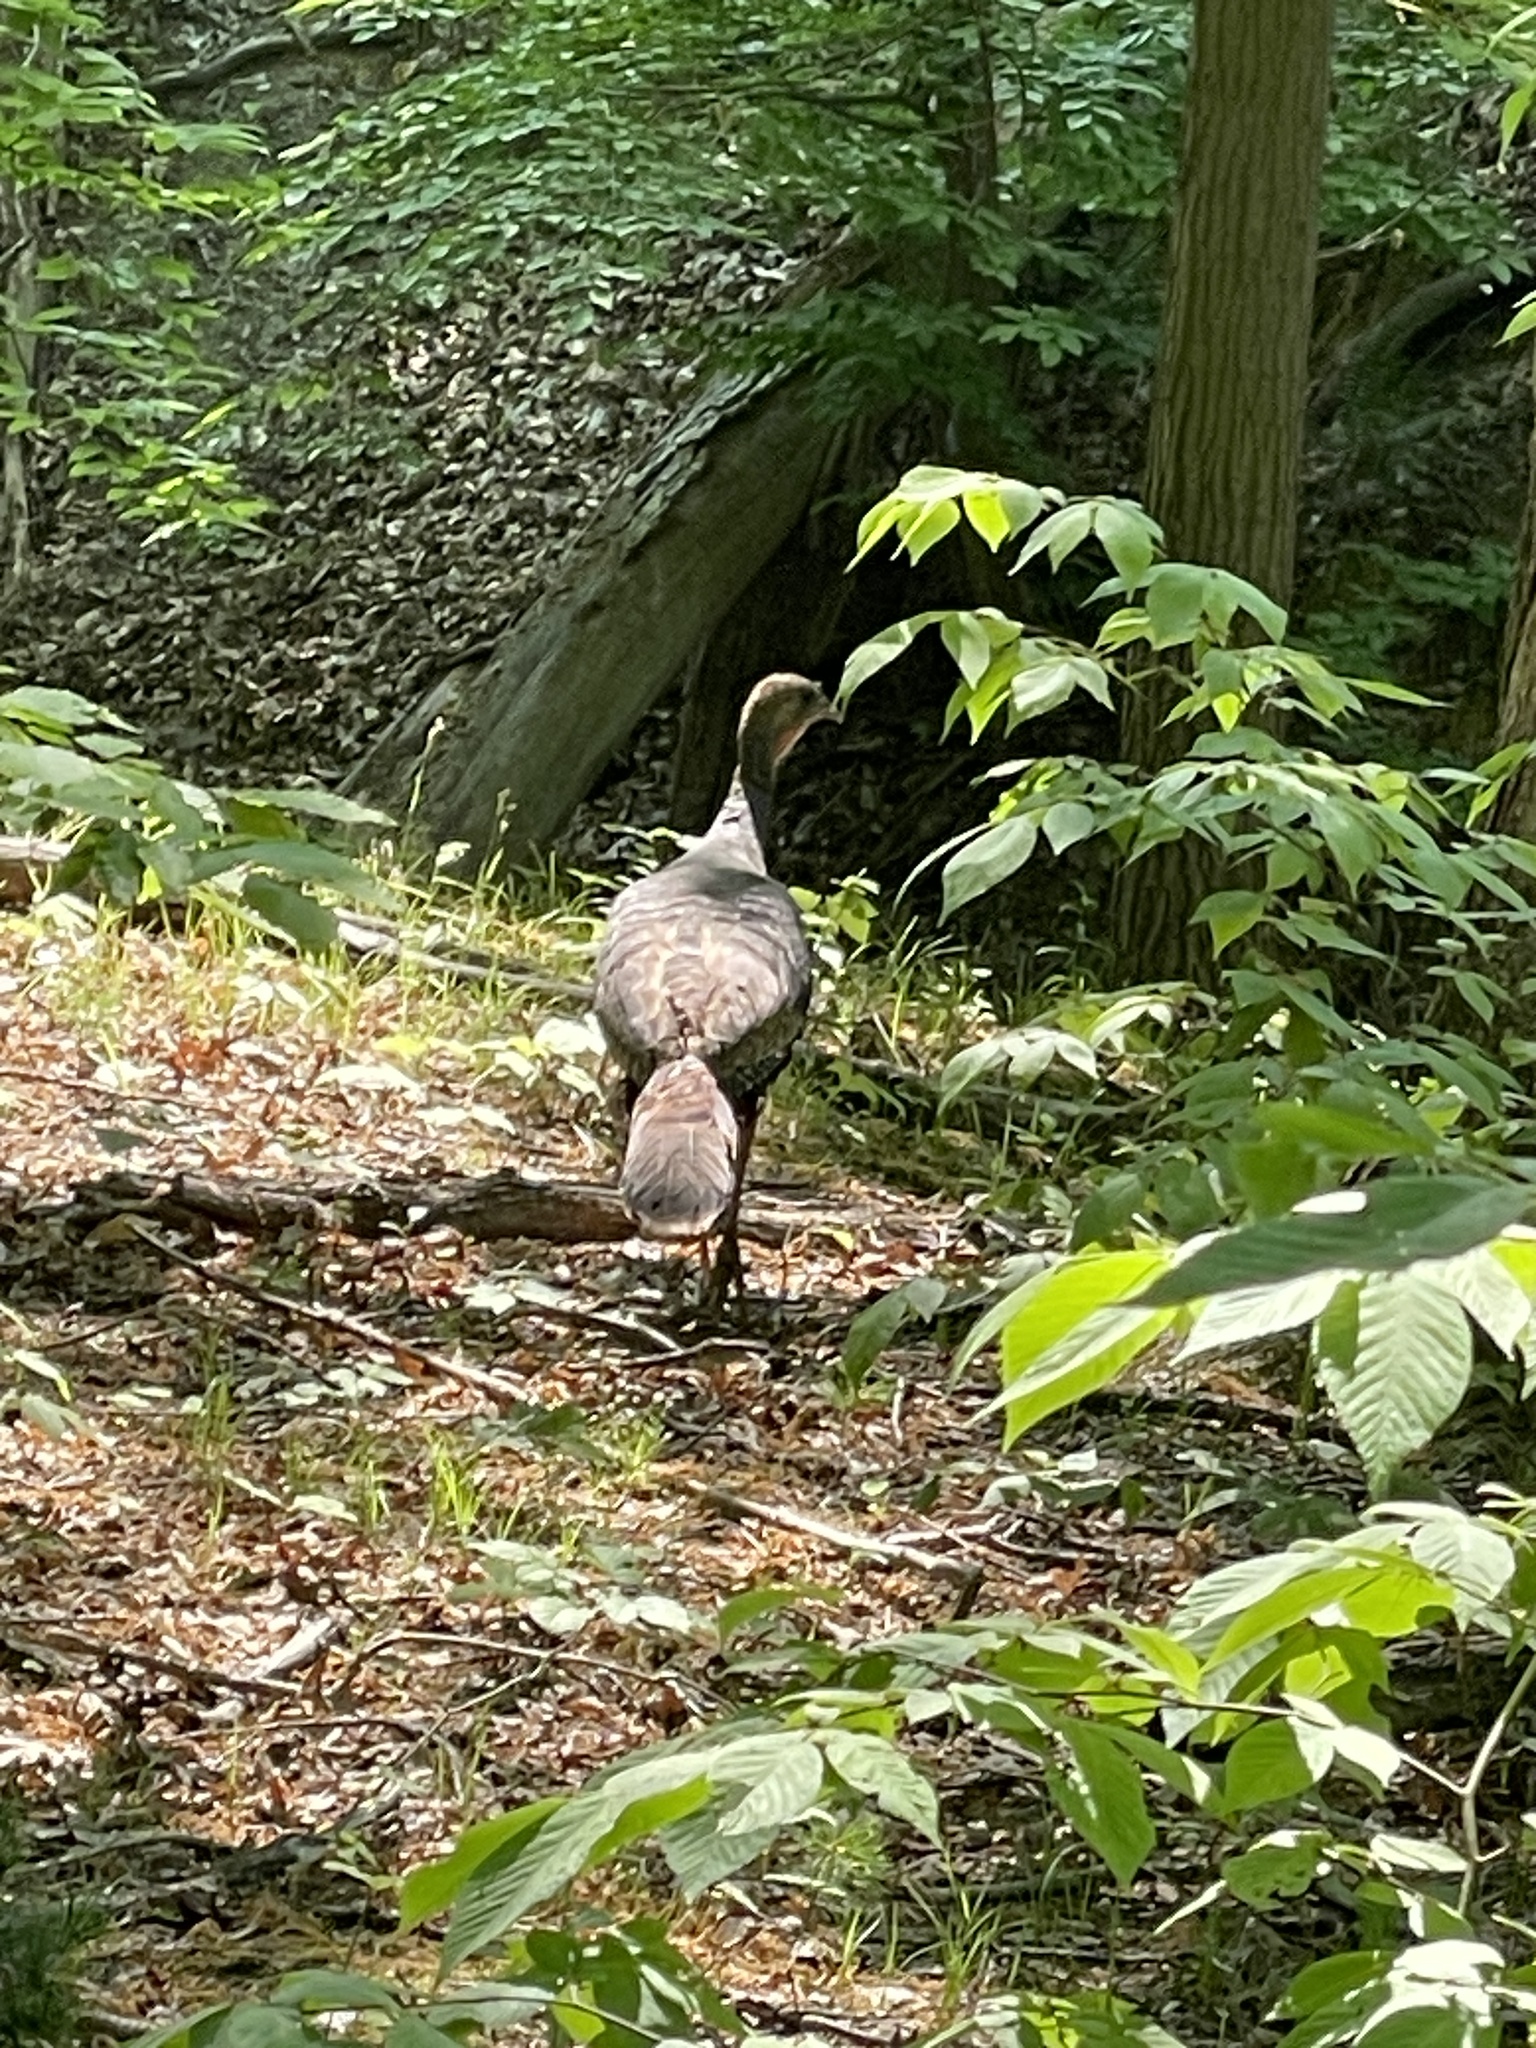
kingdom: Animalia
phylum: Chordata
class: Aves
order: Galliformes
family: Phasianidae
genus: Meleagris
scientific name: Meleagris gallopavo
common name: Wild turkey
